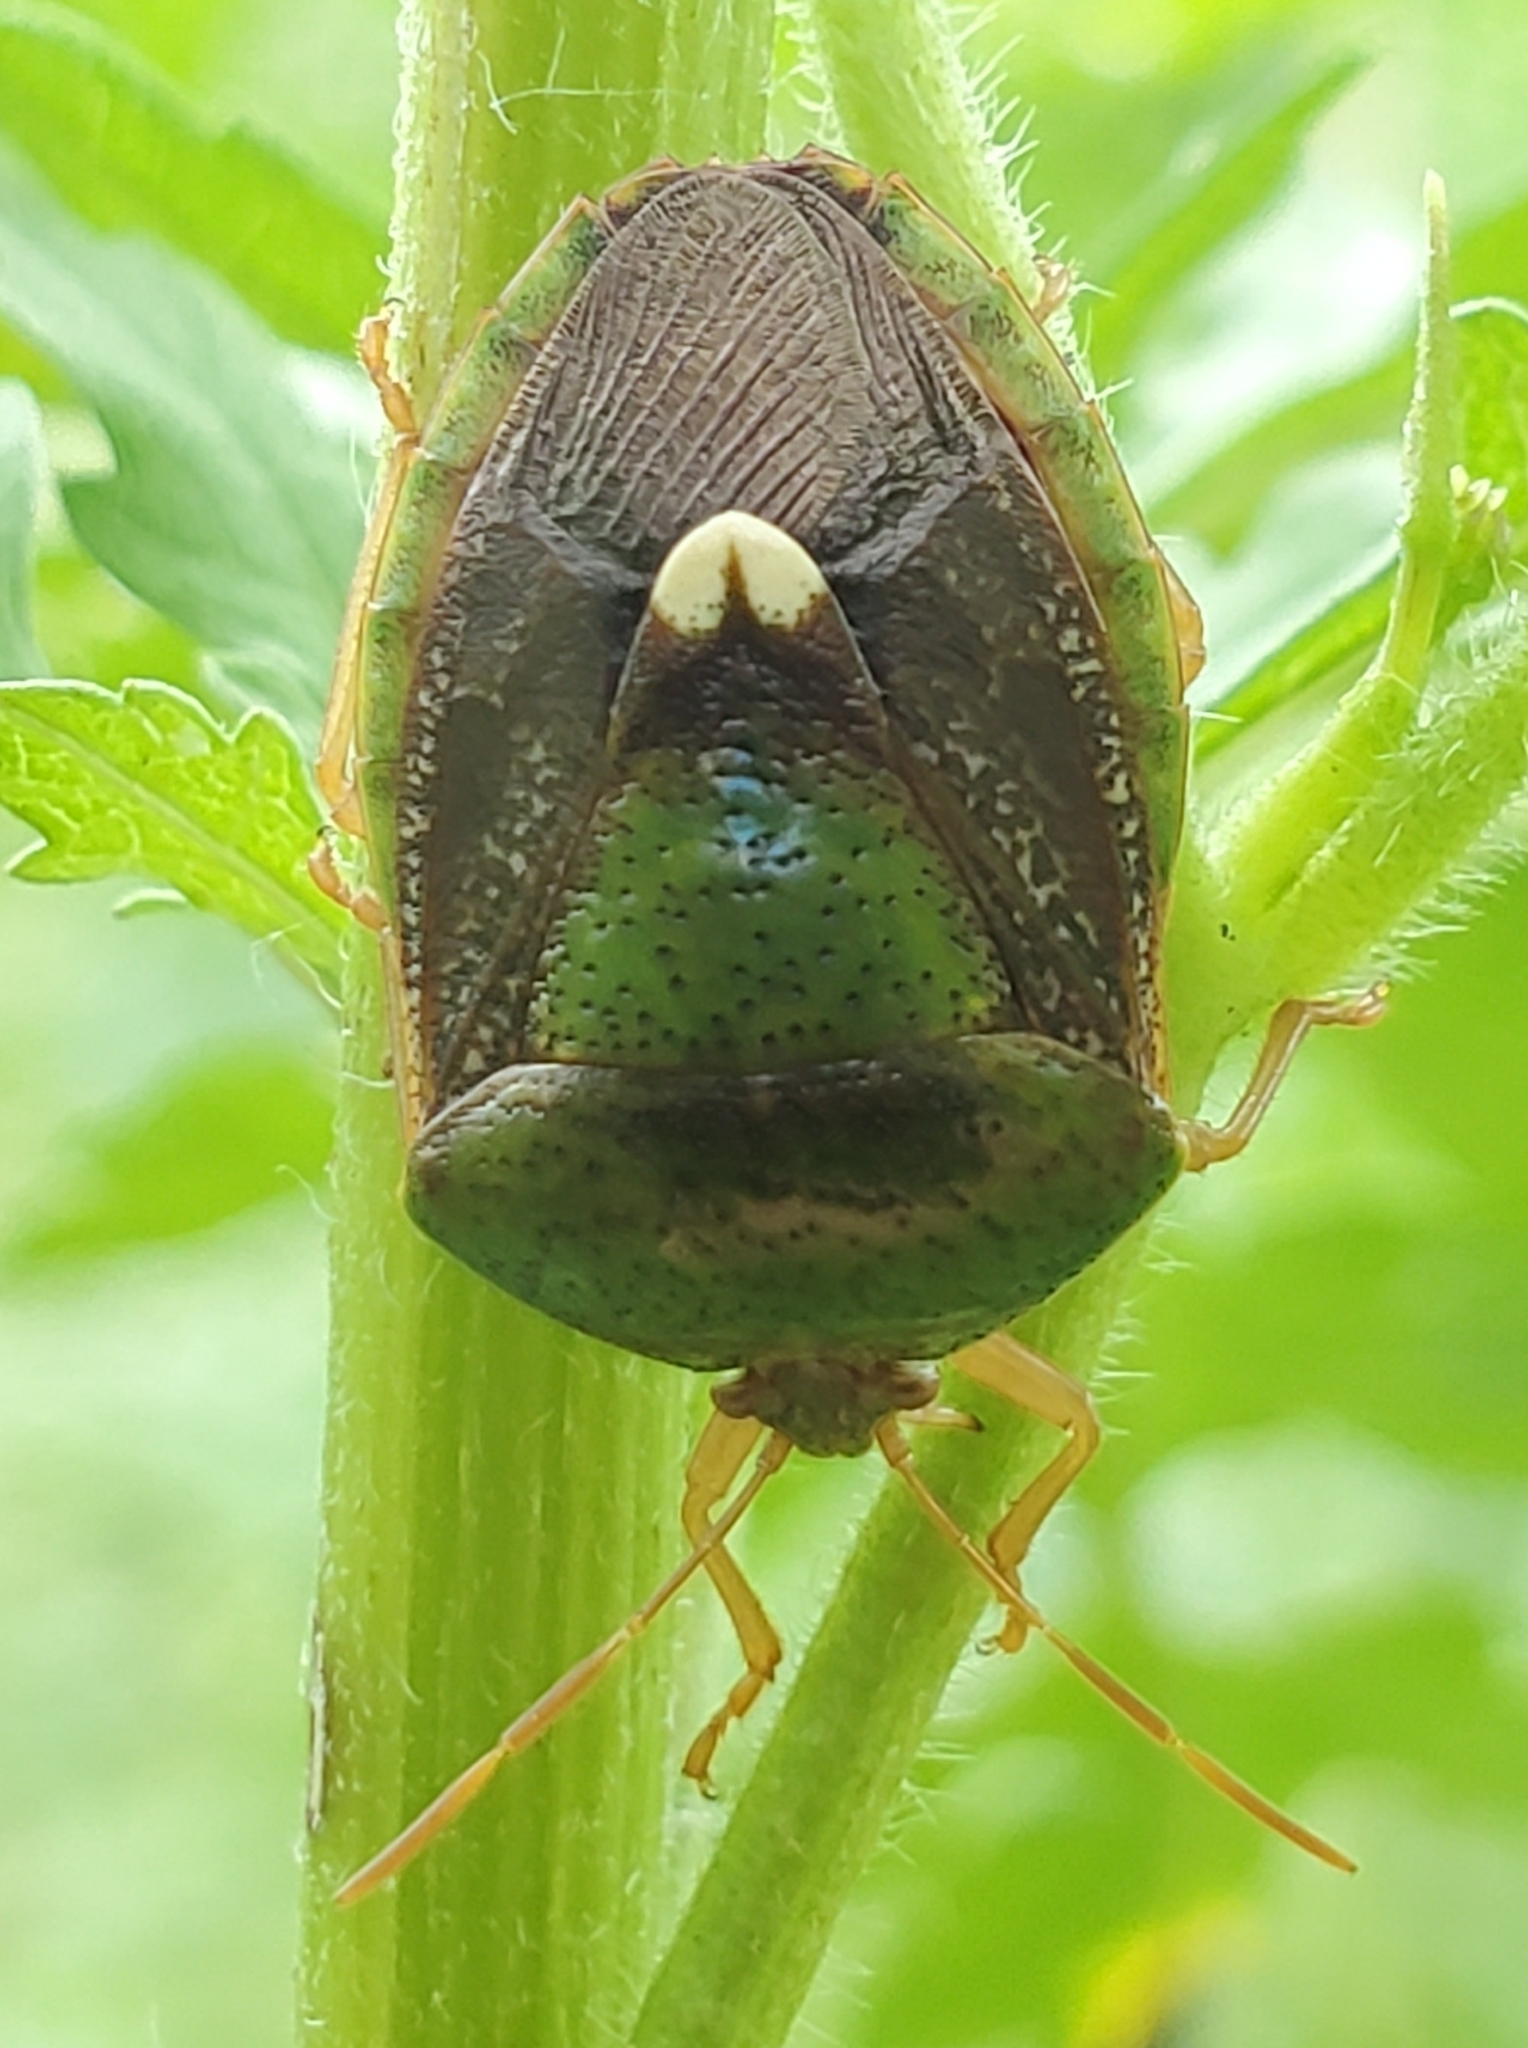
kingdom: Animalia
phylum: Arthropoda
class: Insecta
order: Hemiptera
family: Pentatomidae
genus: Edessa
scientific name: Edessa bifida
